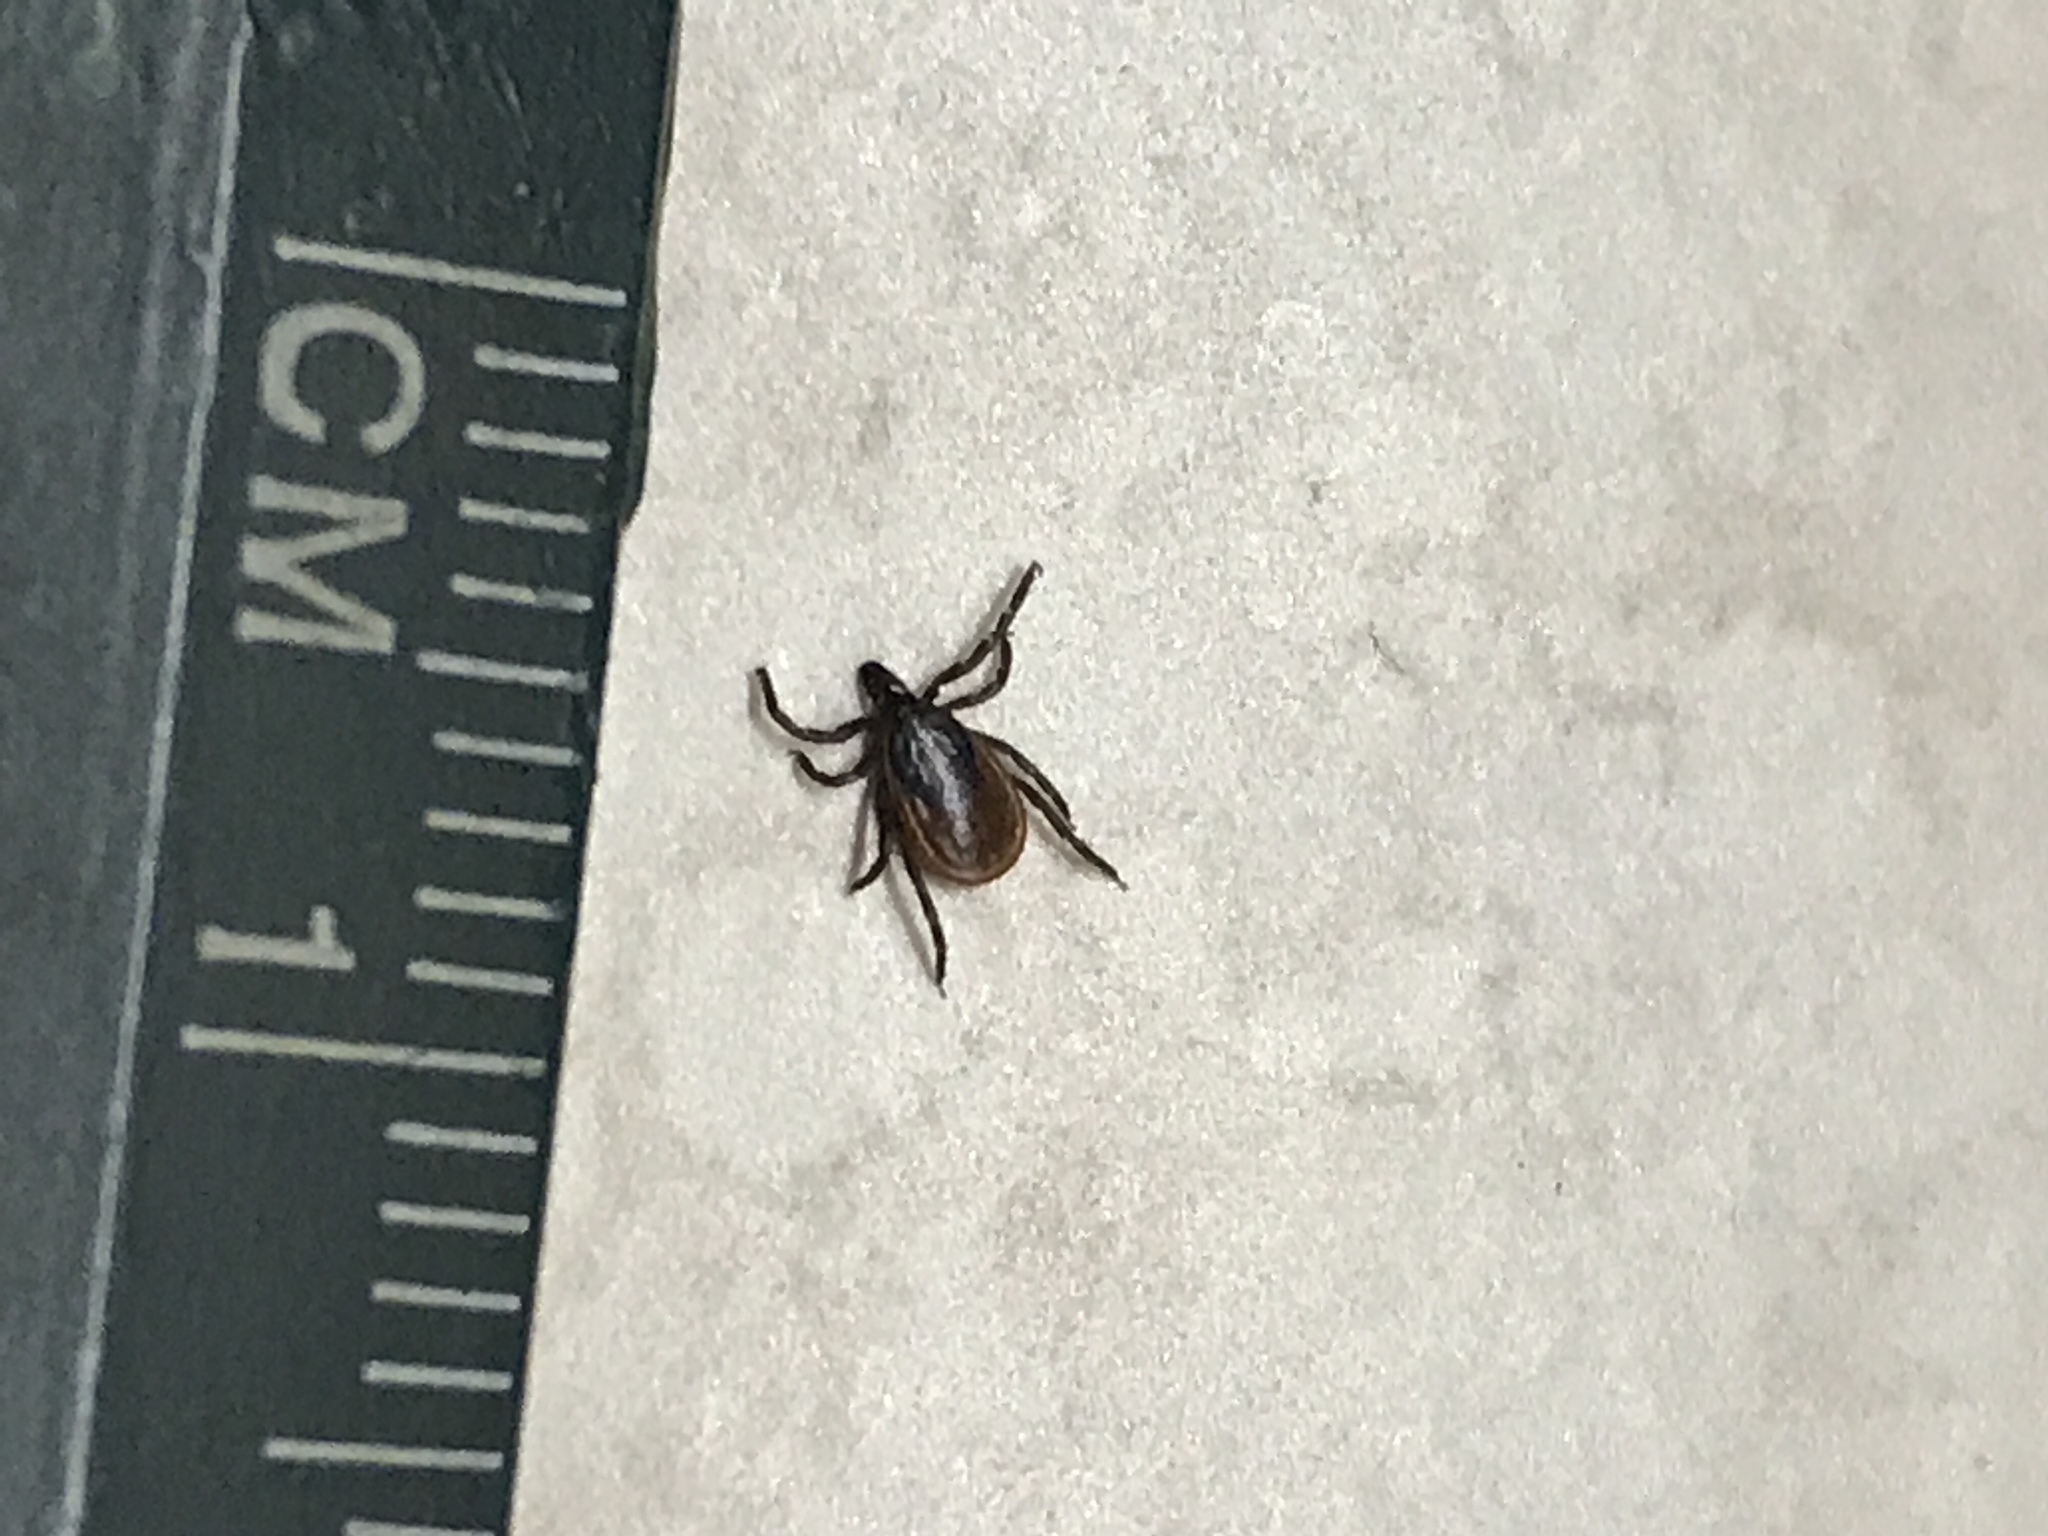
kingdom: Animalia
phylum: Arthropoda
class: Arachnida
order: Ixodida
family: Ixodidae
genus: Ixodes
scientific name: Ixodes scapularis
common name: Black legged tick
